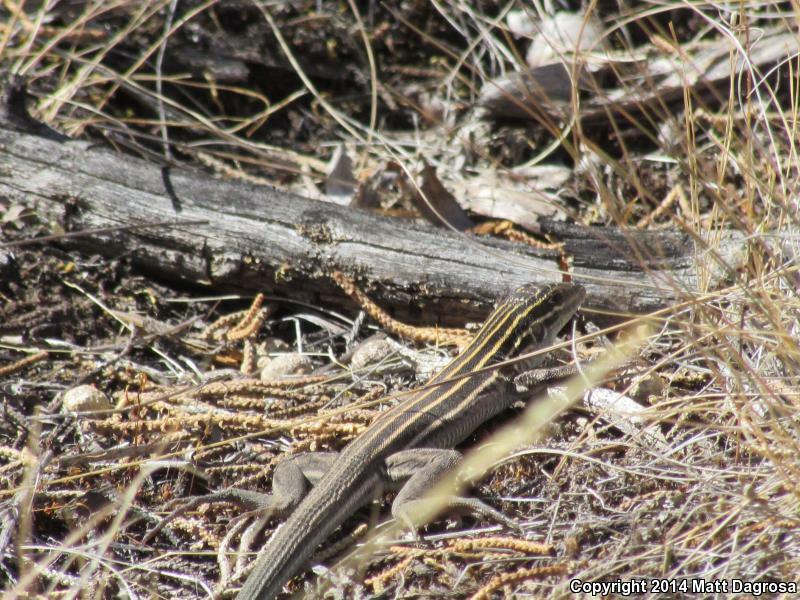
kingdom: Animalia
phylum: Chordata
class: Squamata
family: Teiidae
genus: Aspidoscelis
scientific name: Aspidoscelis velox
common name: Plateau striped whiptail
